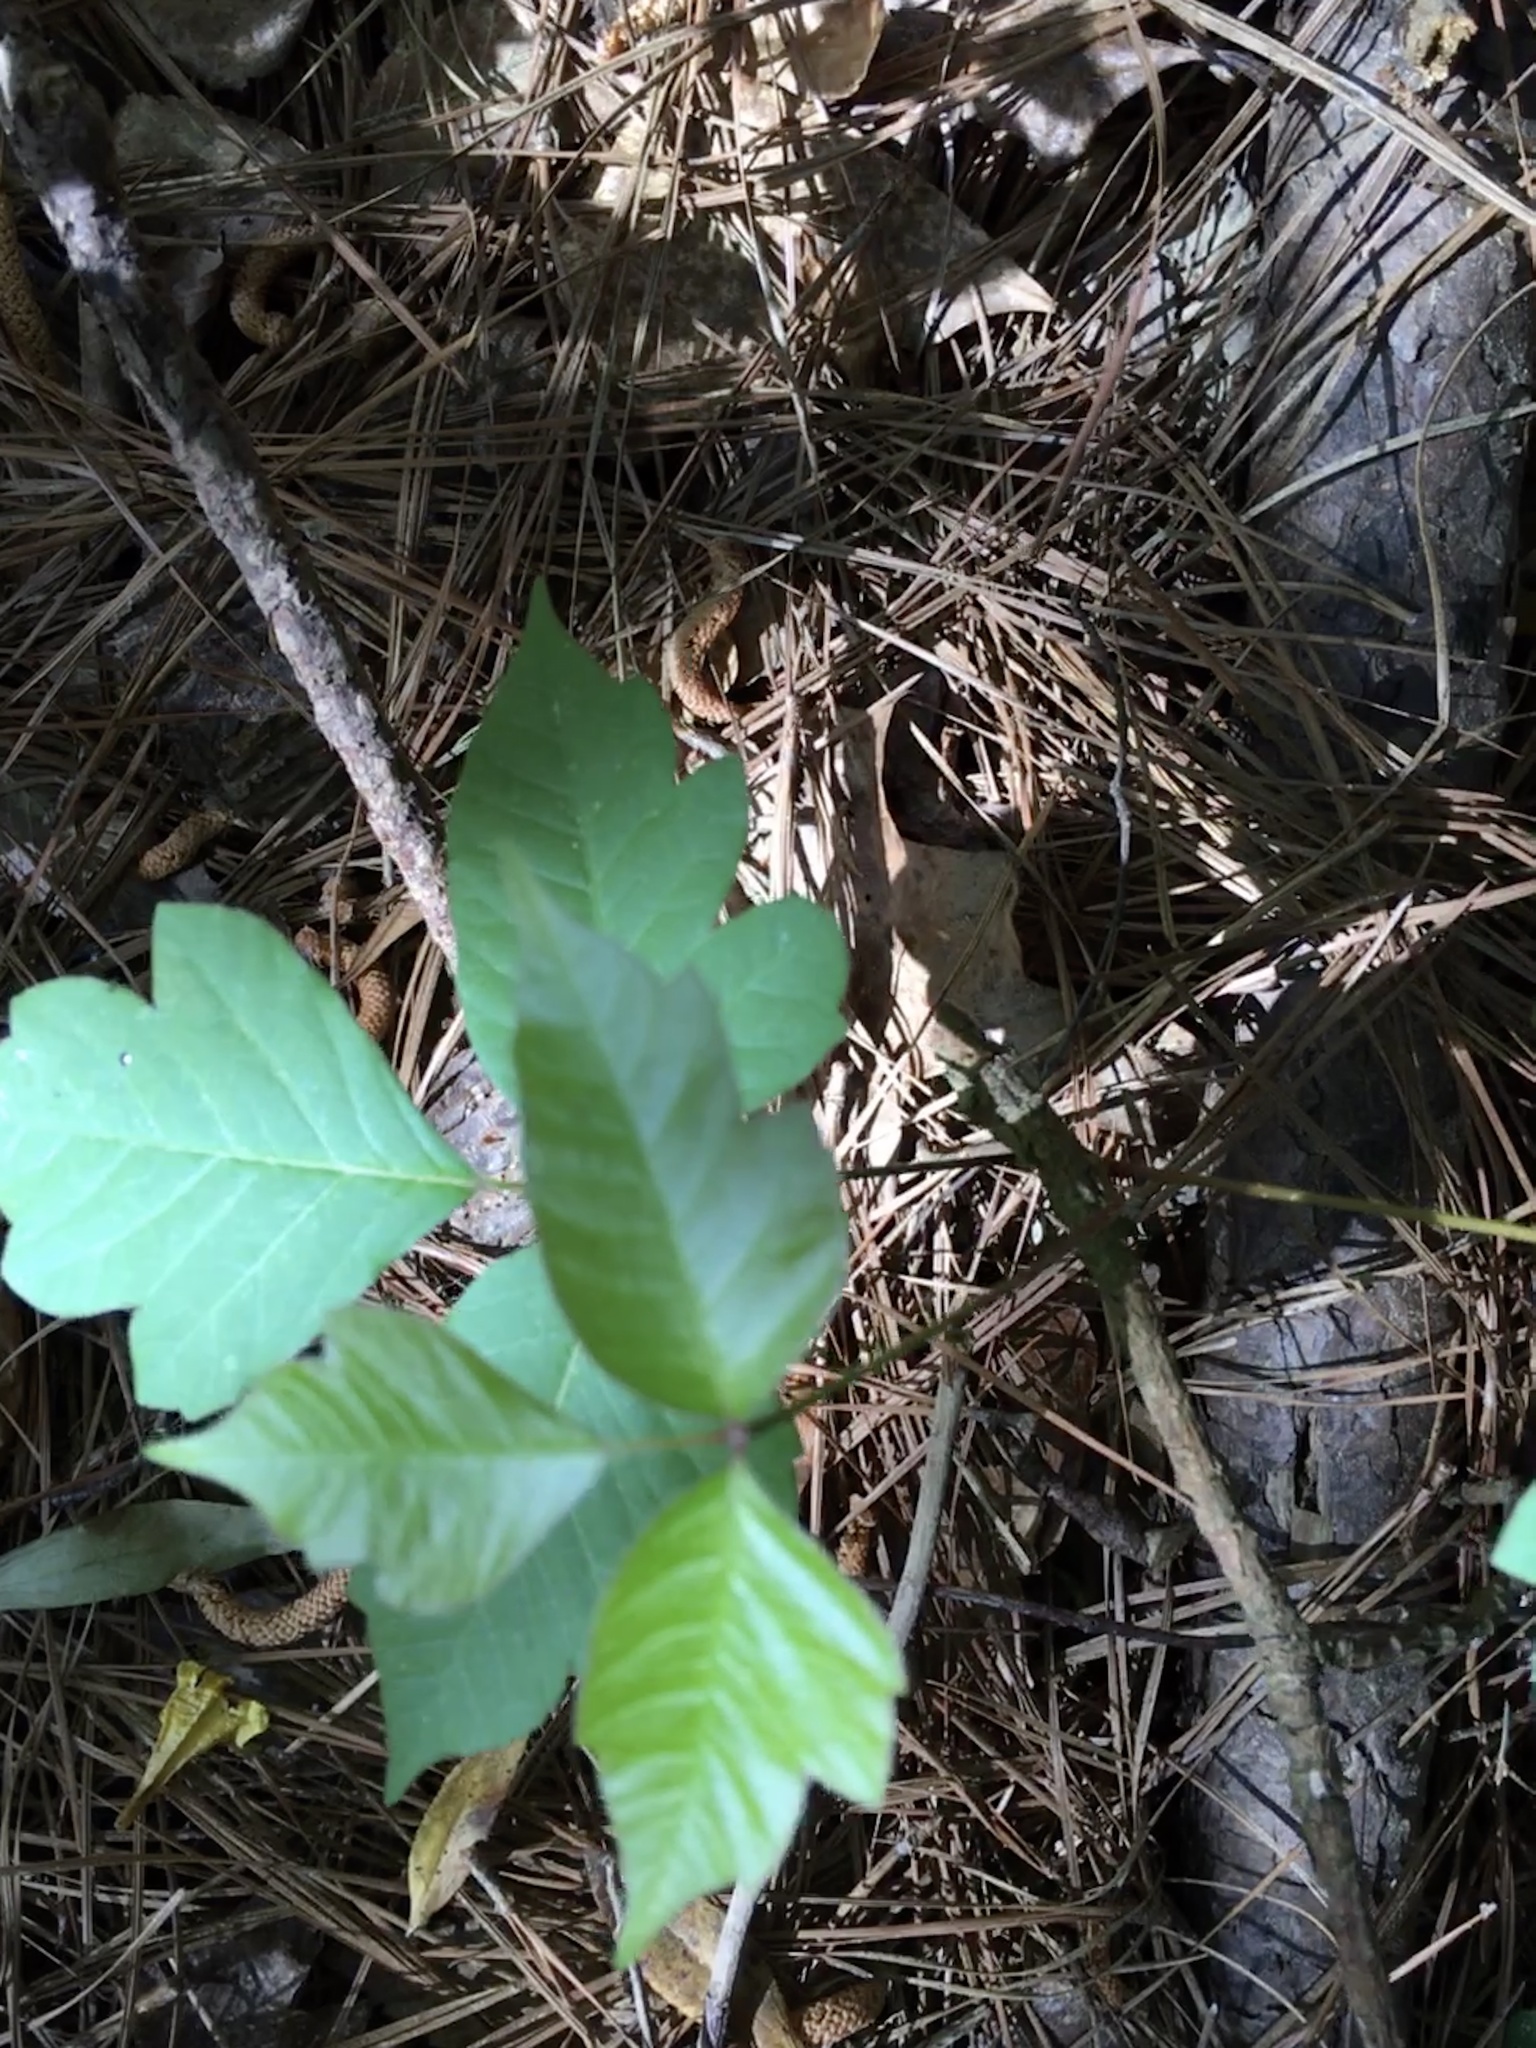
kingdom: Plantae
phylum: Tracheophyta
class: Magnoliopsida
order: Sapindales
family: Anacardiaceae
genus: Toxicodendron
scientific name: Toxicodendron radicans
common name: Poison ivy
